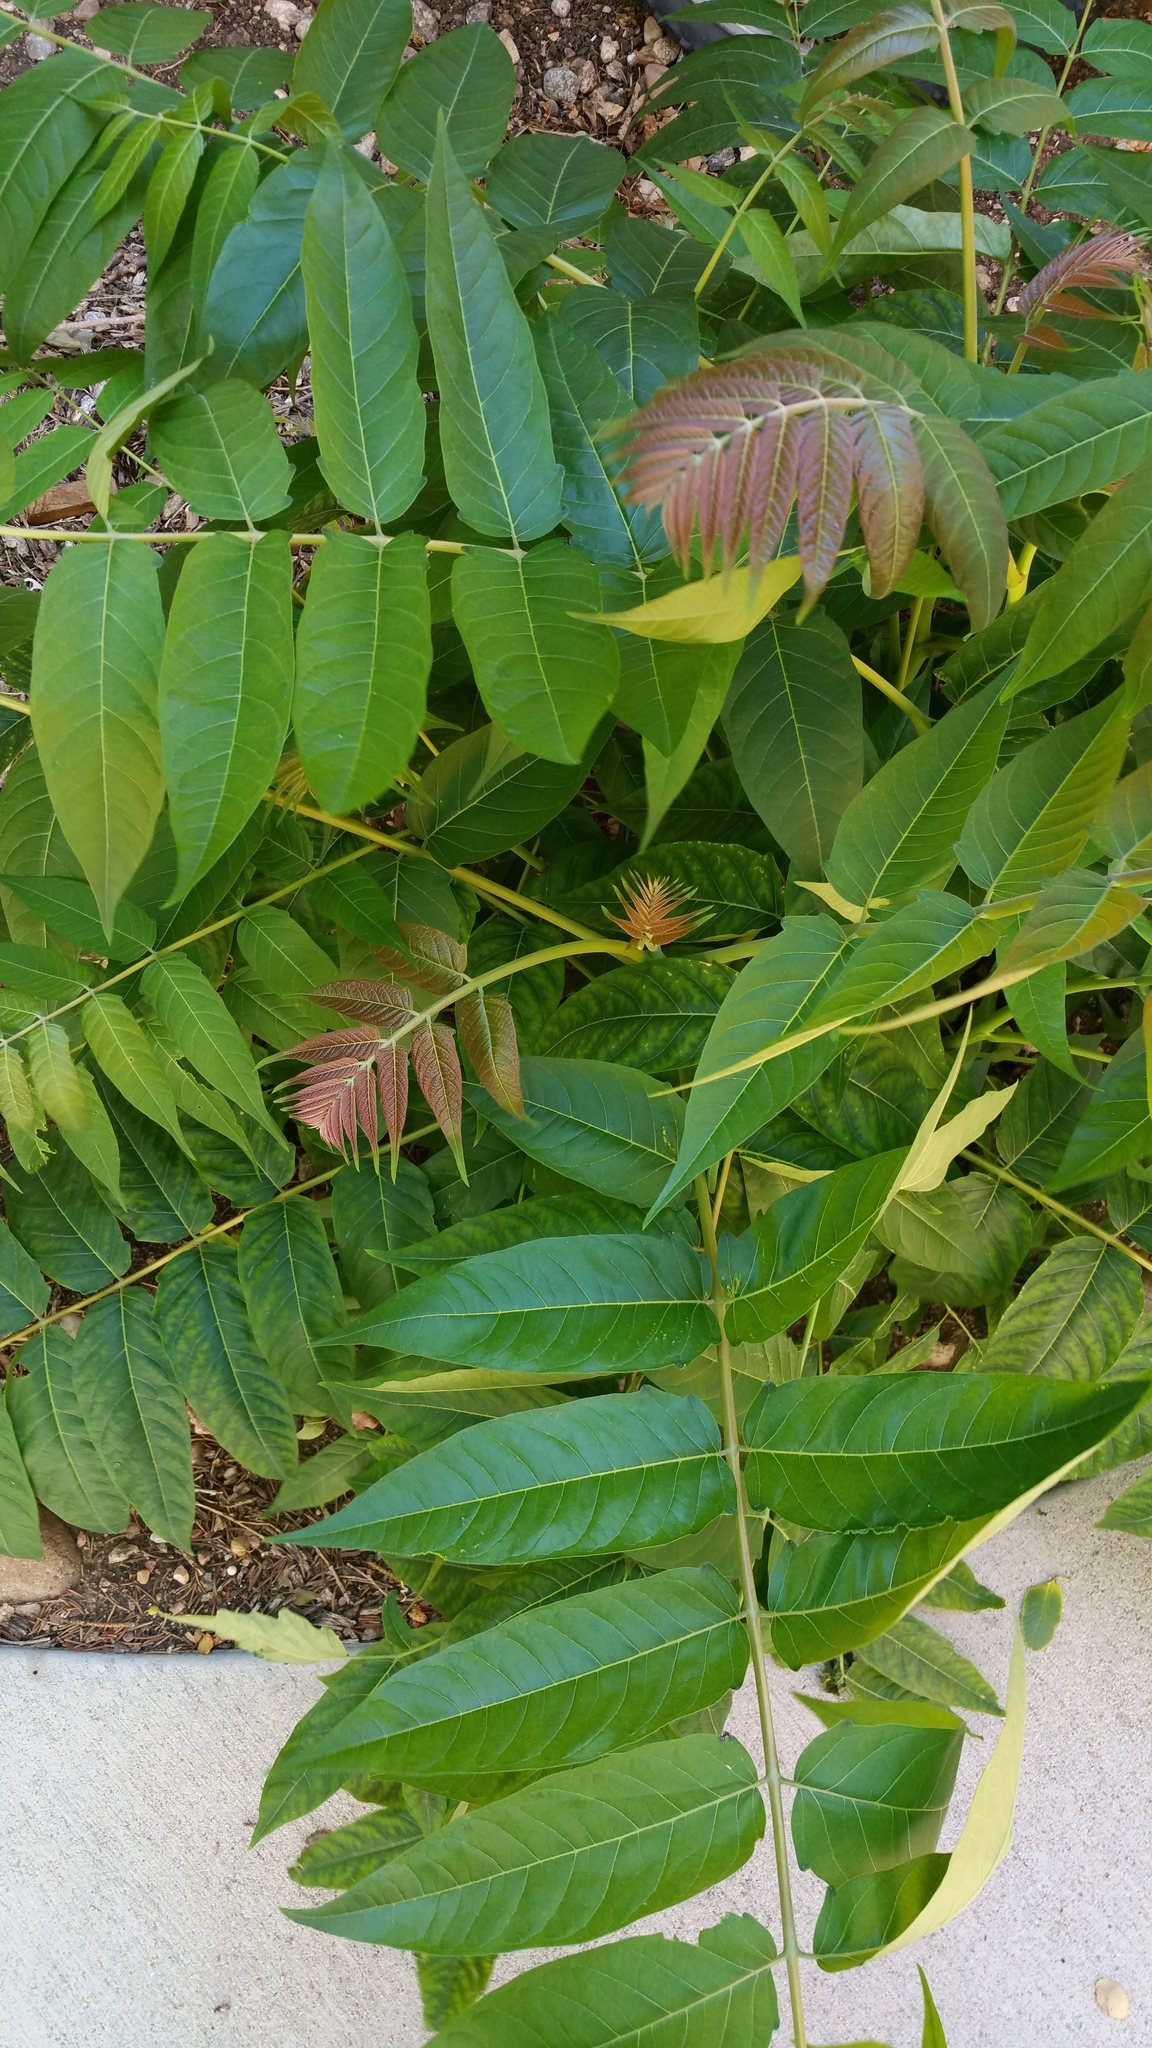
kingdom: Plantae
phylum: Tracheophyta
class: Magnoliopsida
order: Sapindales
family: Simaroubaceae
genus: Ailanthus
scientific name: Ailanthus altissima
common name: Tree-of-heaven
